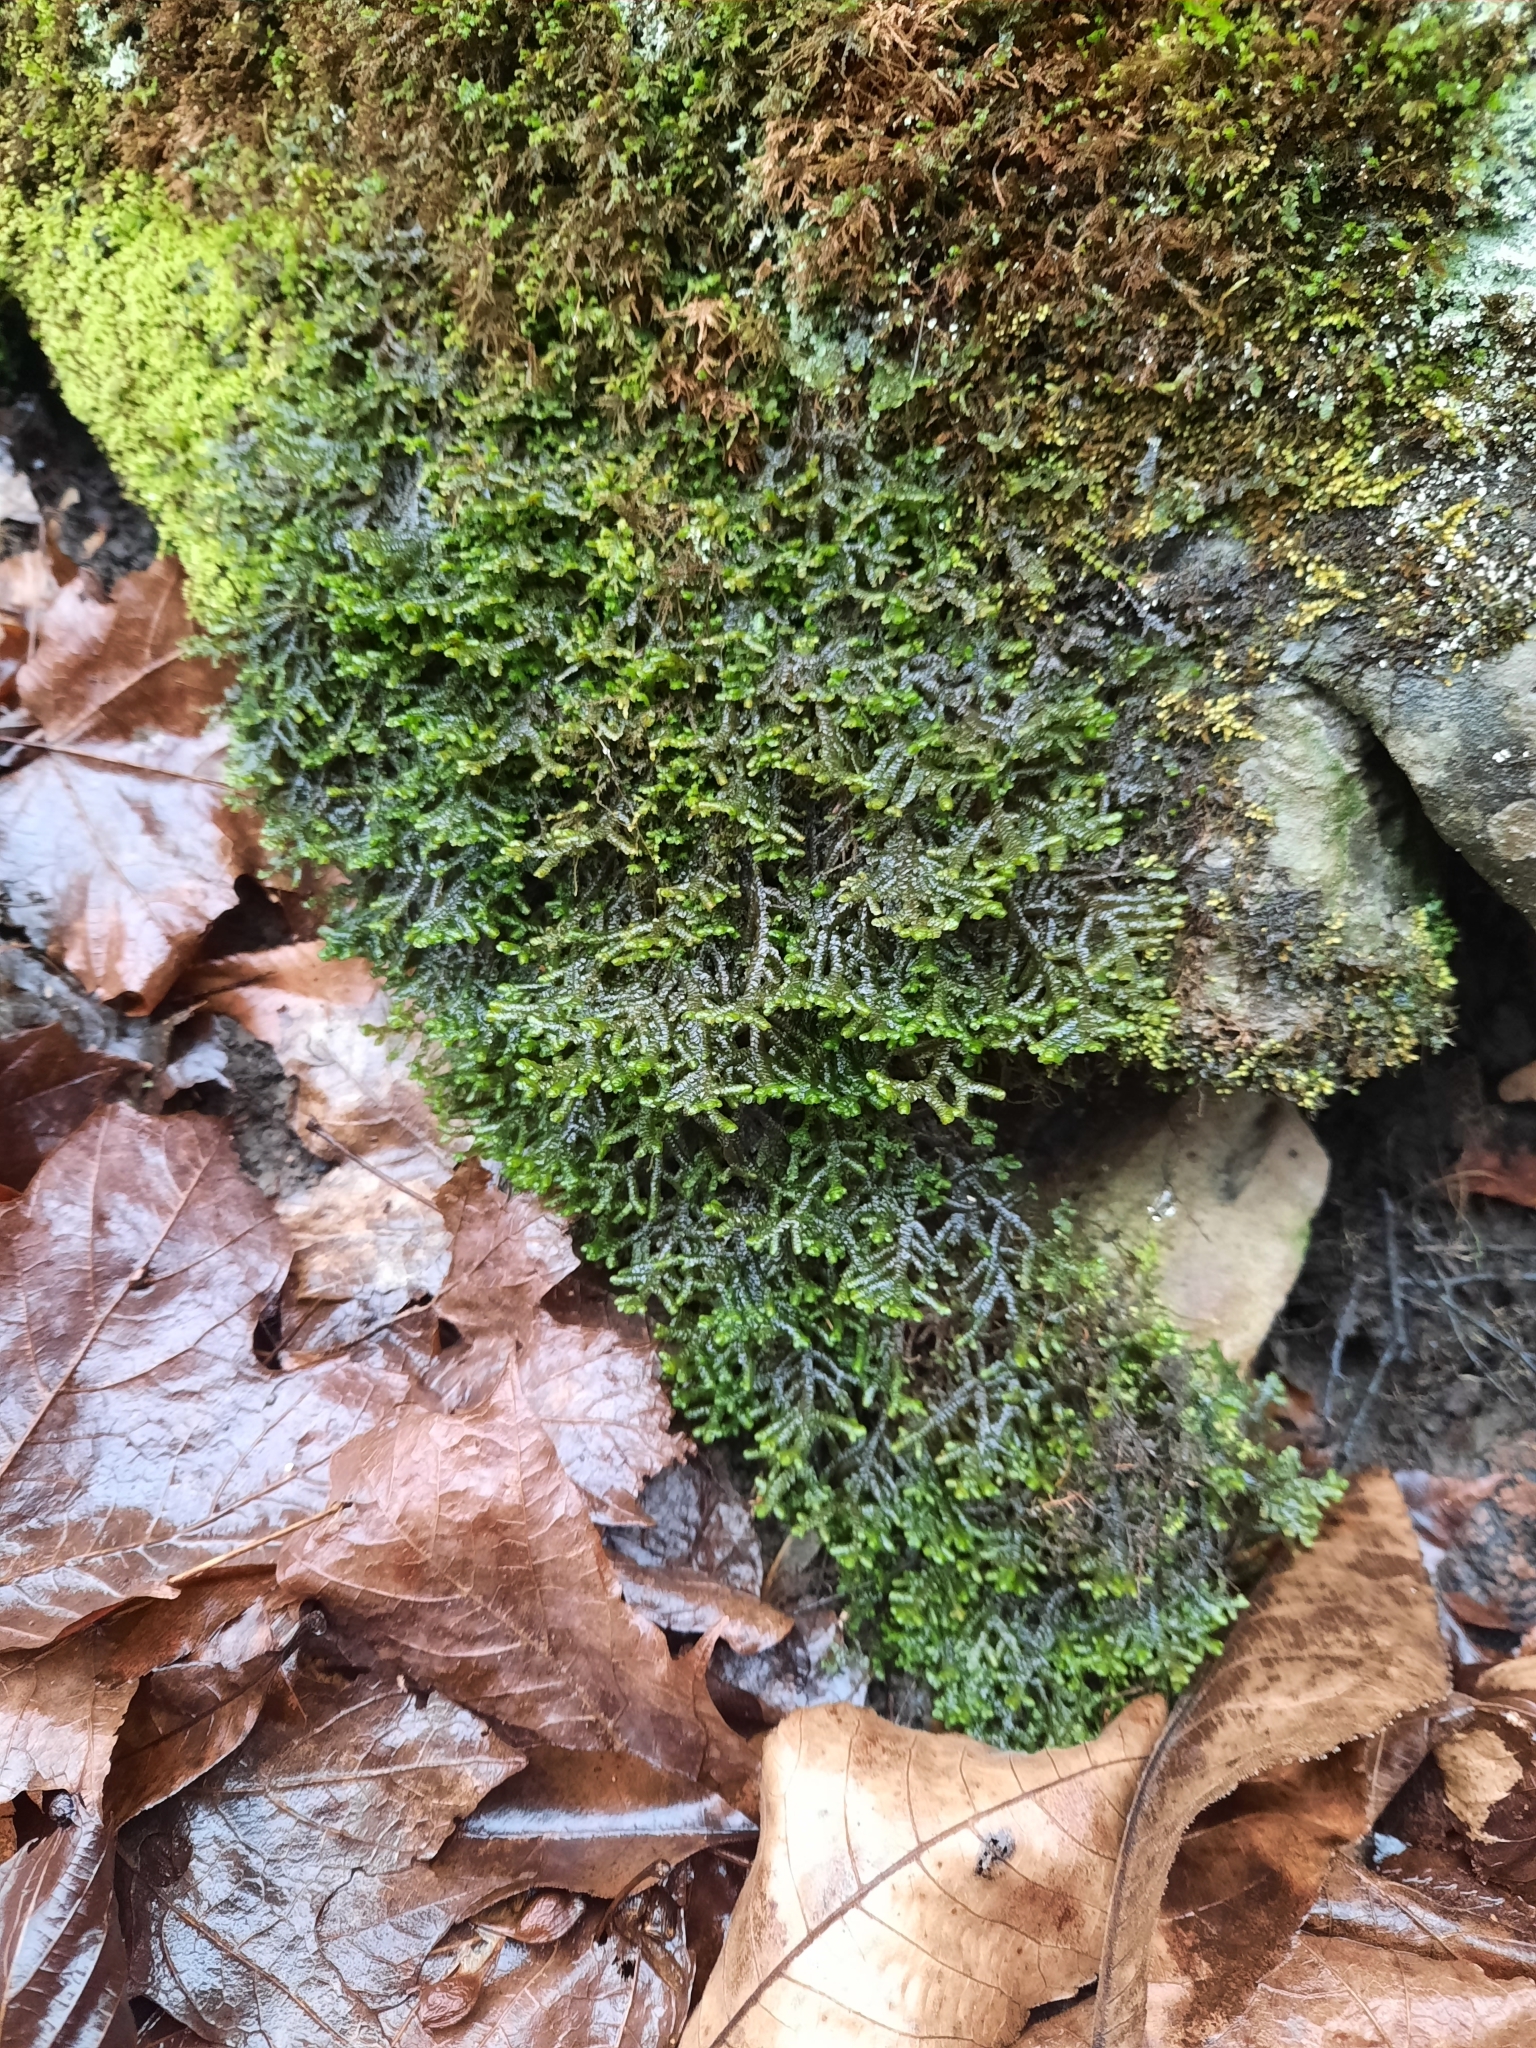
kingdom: Plantae
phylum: Marchantiophyta
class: Jungermanniopsida
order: Porellales
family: Porellaceae
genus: Porella
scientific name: Porella platyphylla
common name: Wall scalewort
